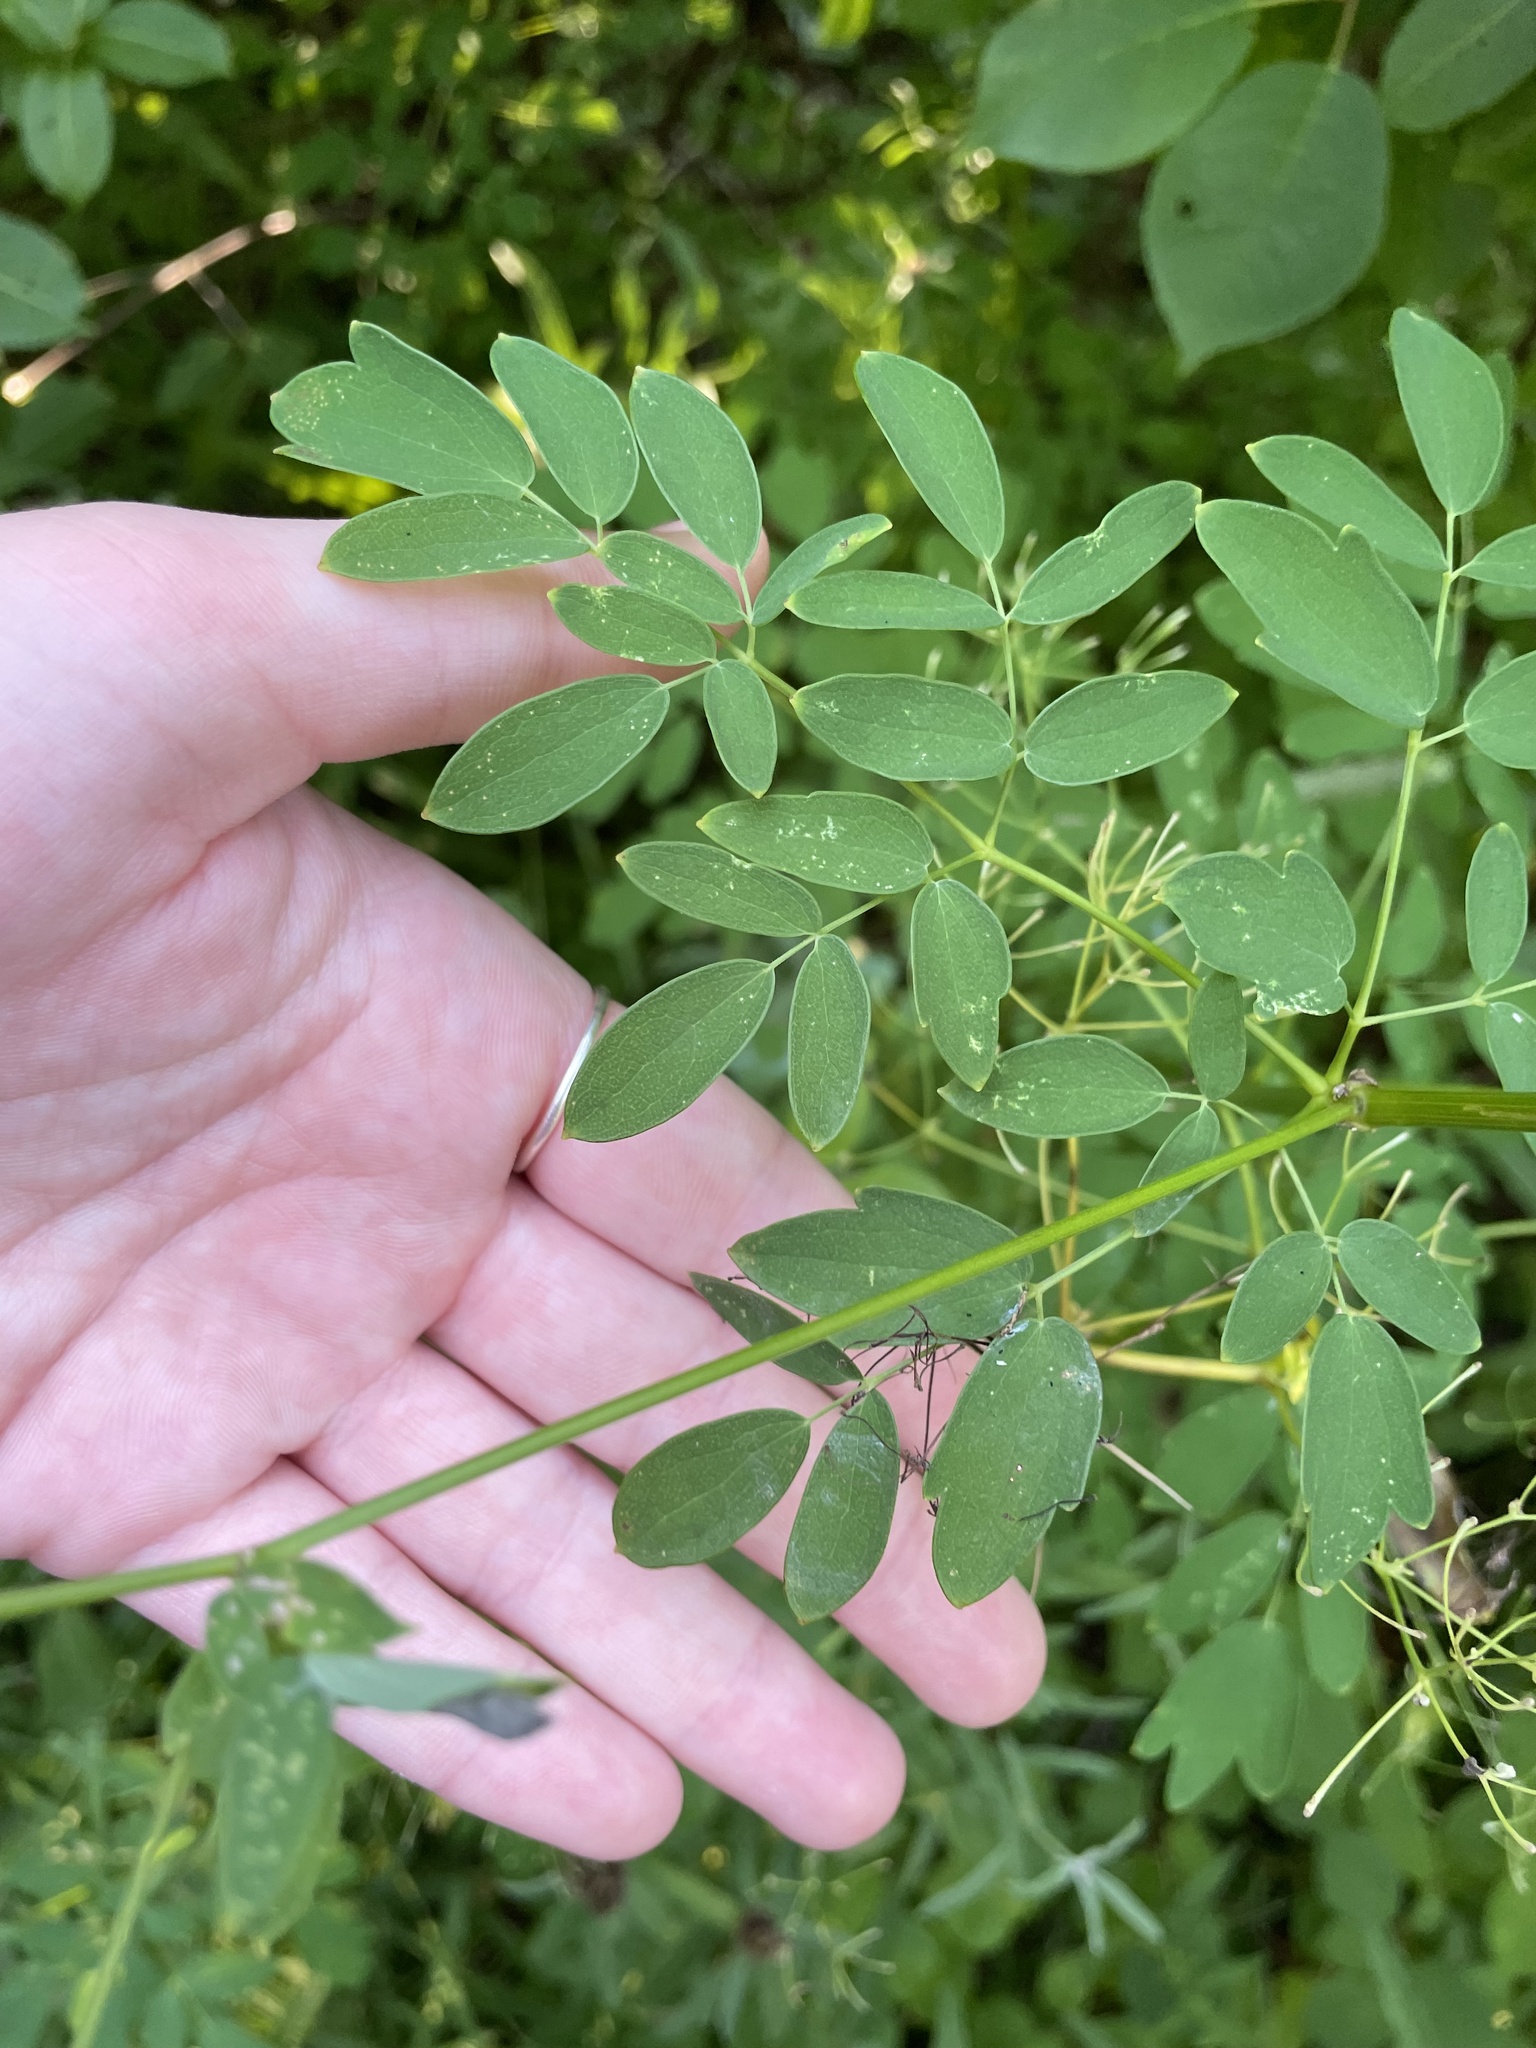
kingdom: Plantae
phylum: Tracheophyta
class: Magnoliopsida
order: Ranunculales
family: Ranunculaceae
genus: Thalictrum
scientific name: Thalictrum pubescens
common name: King-of-the-meadow
